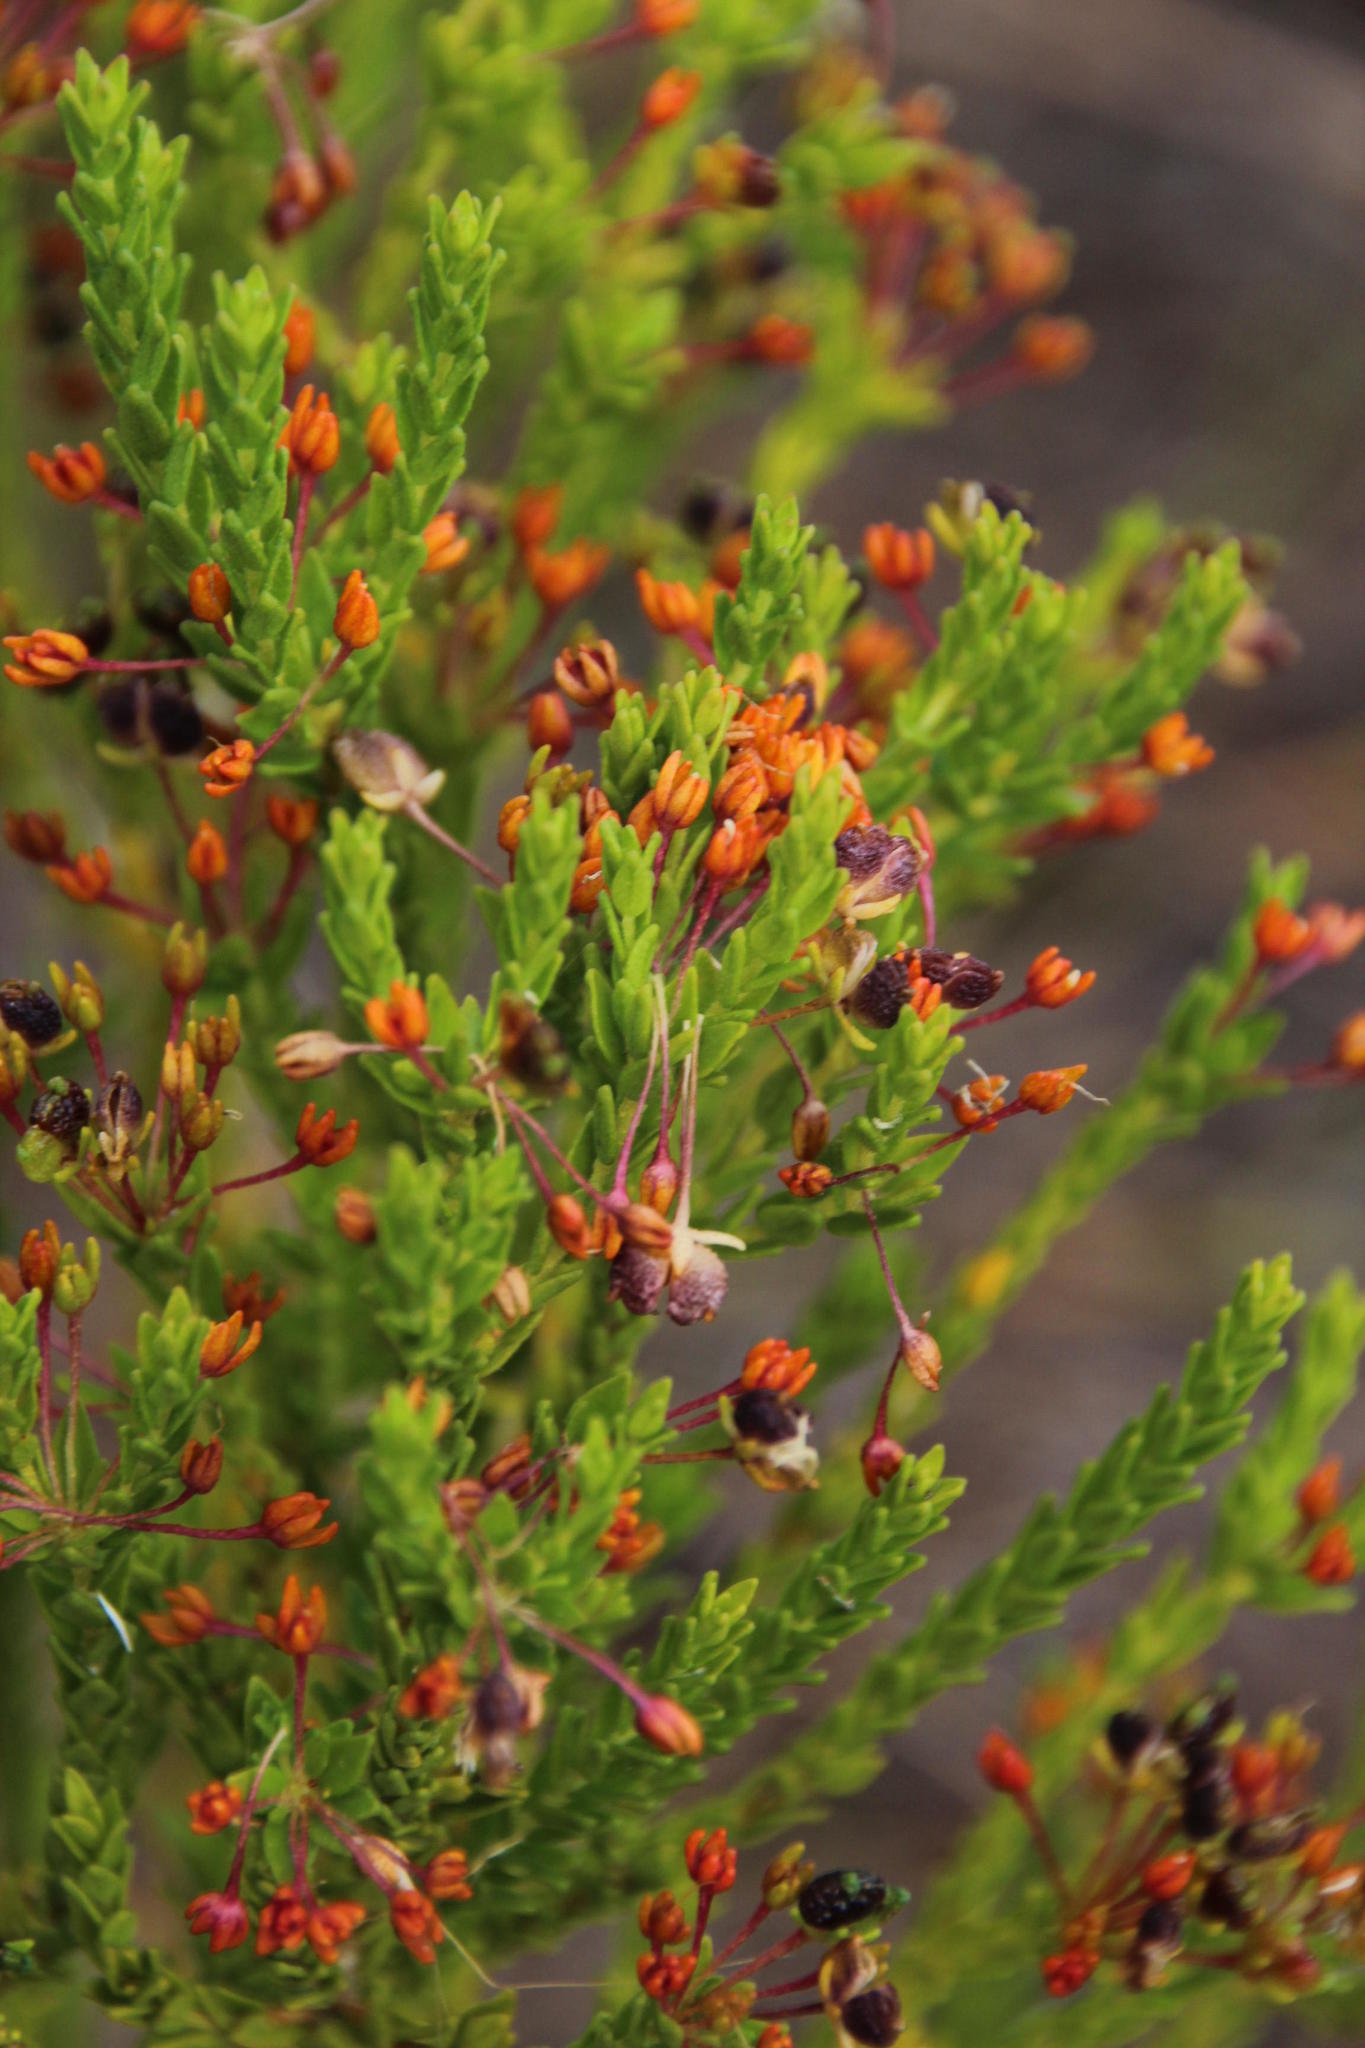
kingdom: Plantae
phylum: Tracheophyta
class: Magnoliopsida
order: Sapindales
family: Rutaceae
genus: Agathosma
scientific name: Agathosma glabrata
